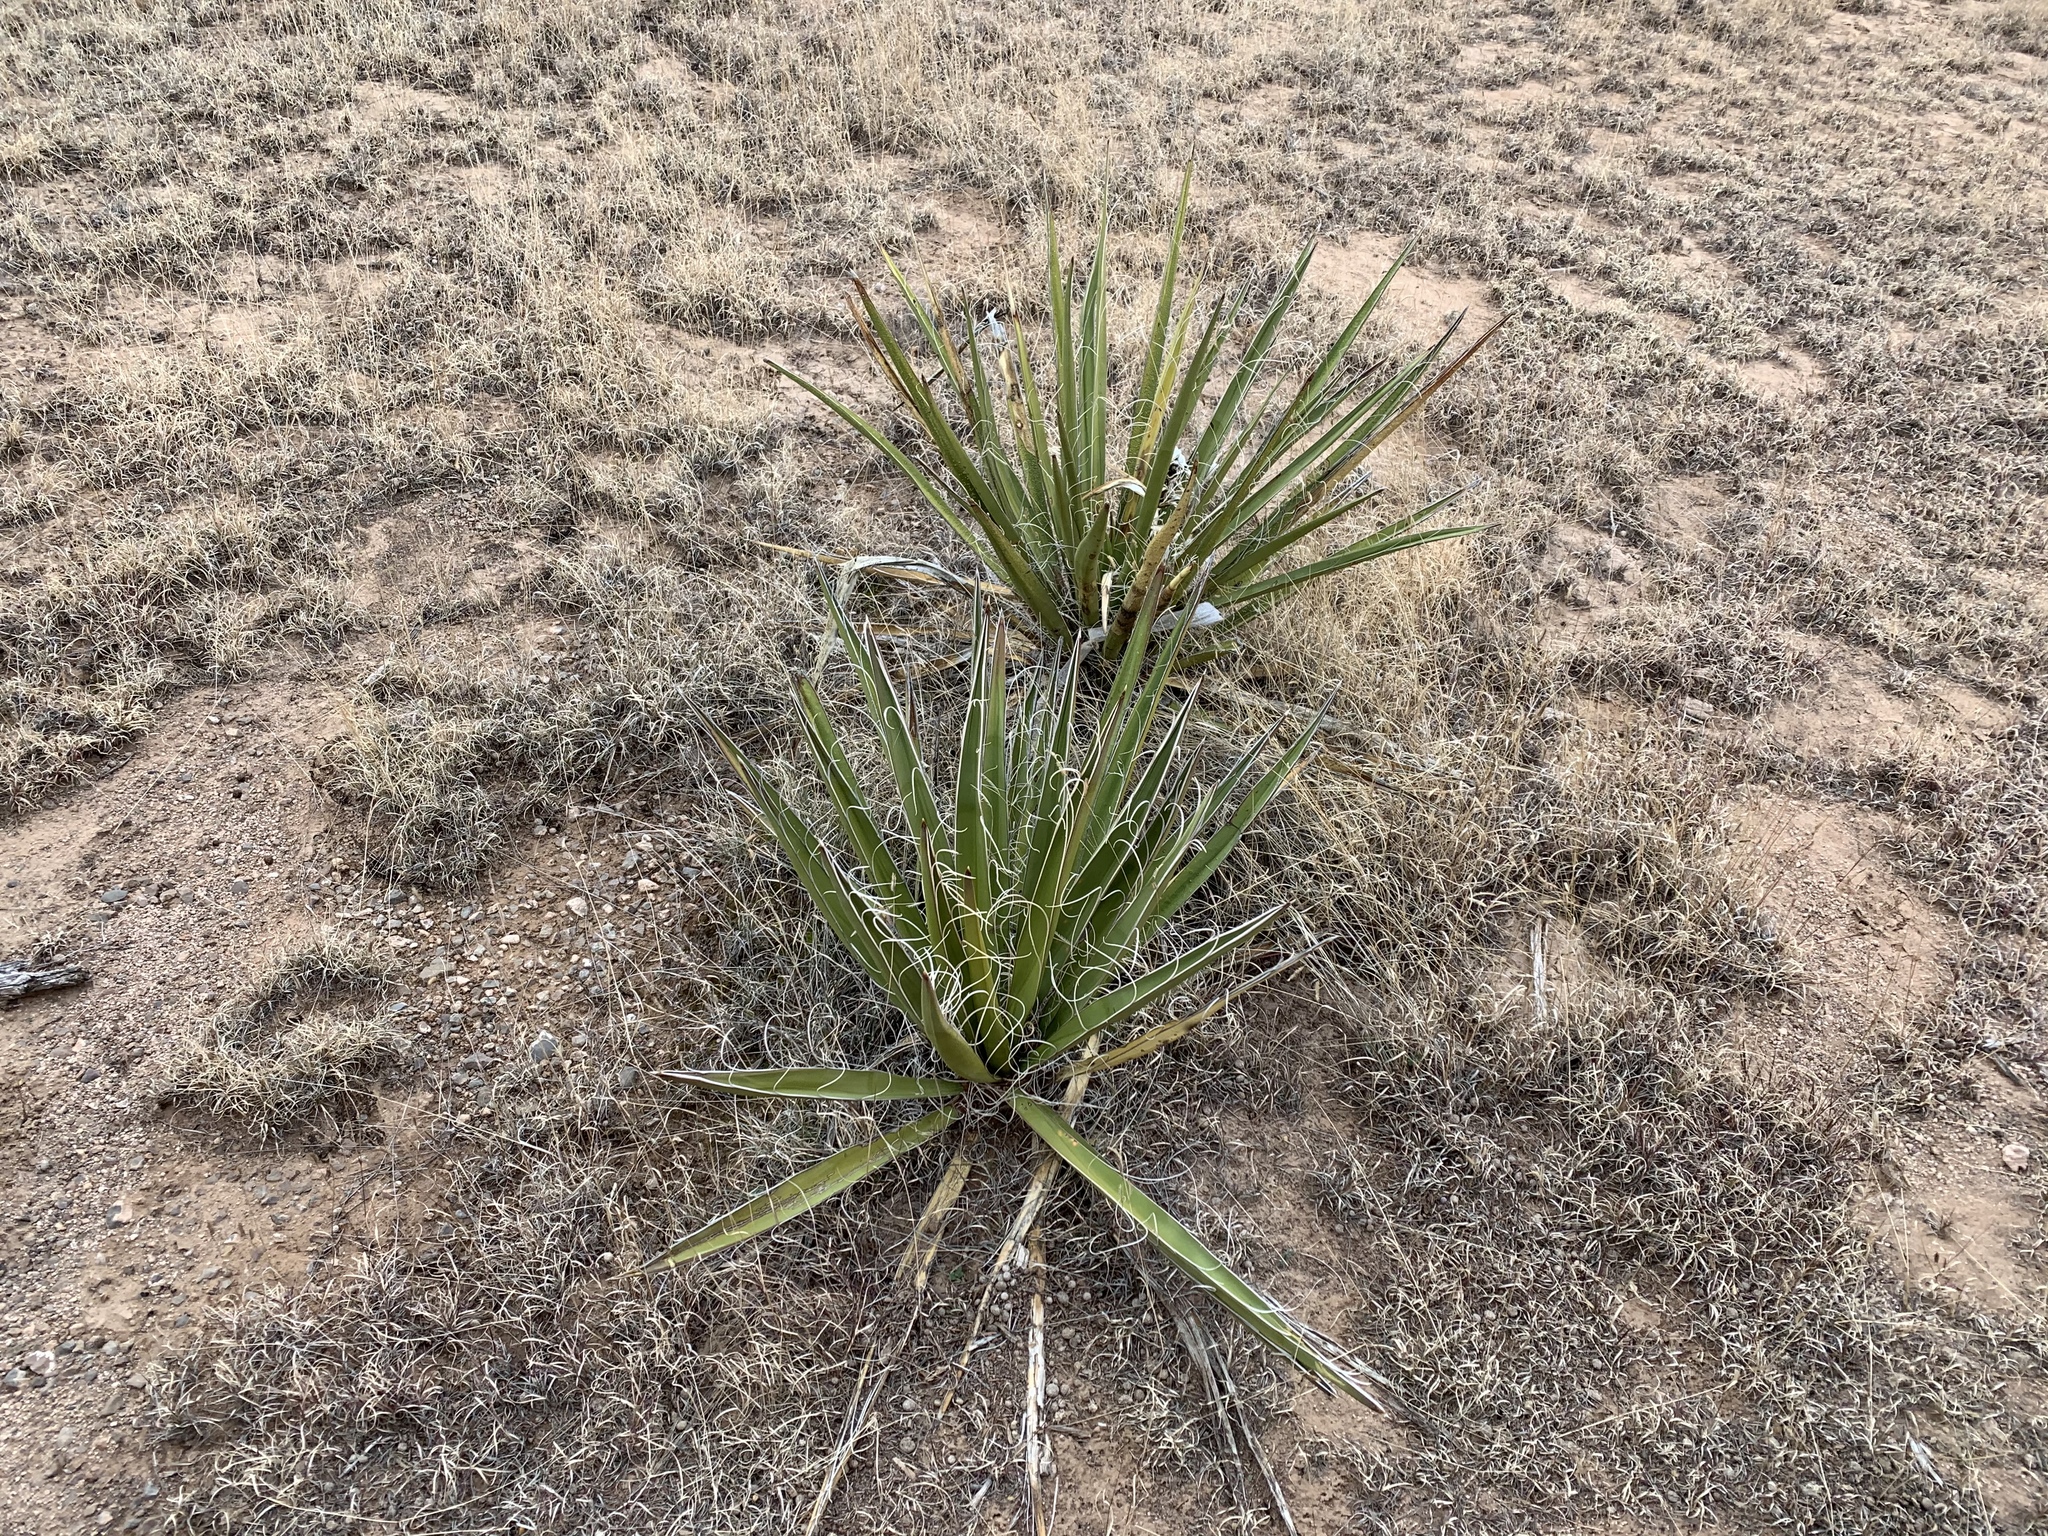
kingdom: Plantae
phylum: Tracheophyta
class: Liliopsida
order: Asparagales
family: Asparagaceae
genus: Yucca
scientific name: Yucca baccata
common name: Banana yucca
